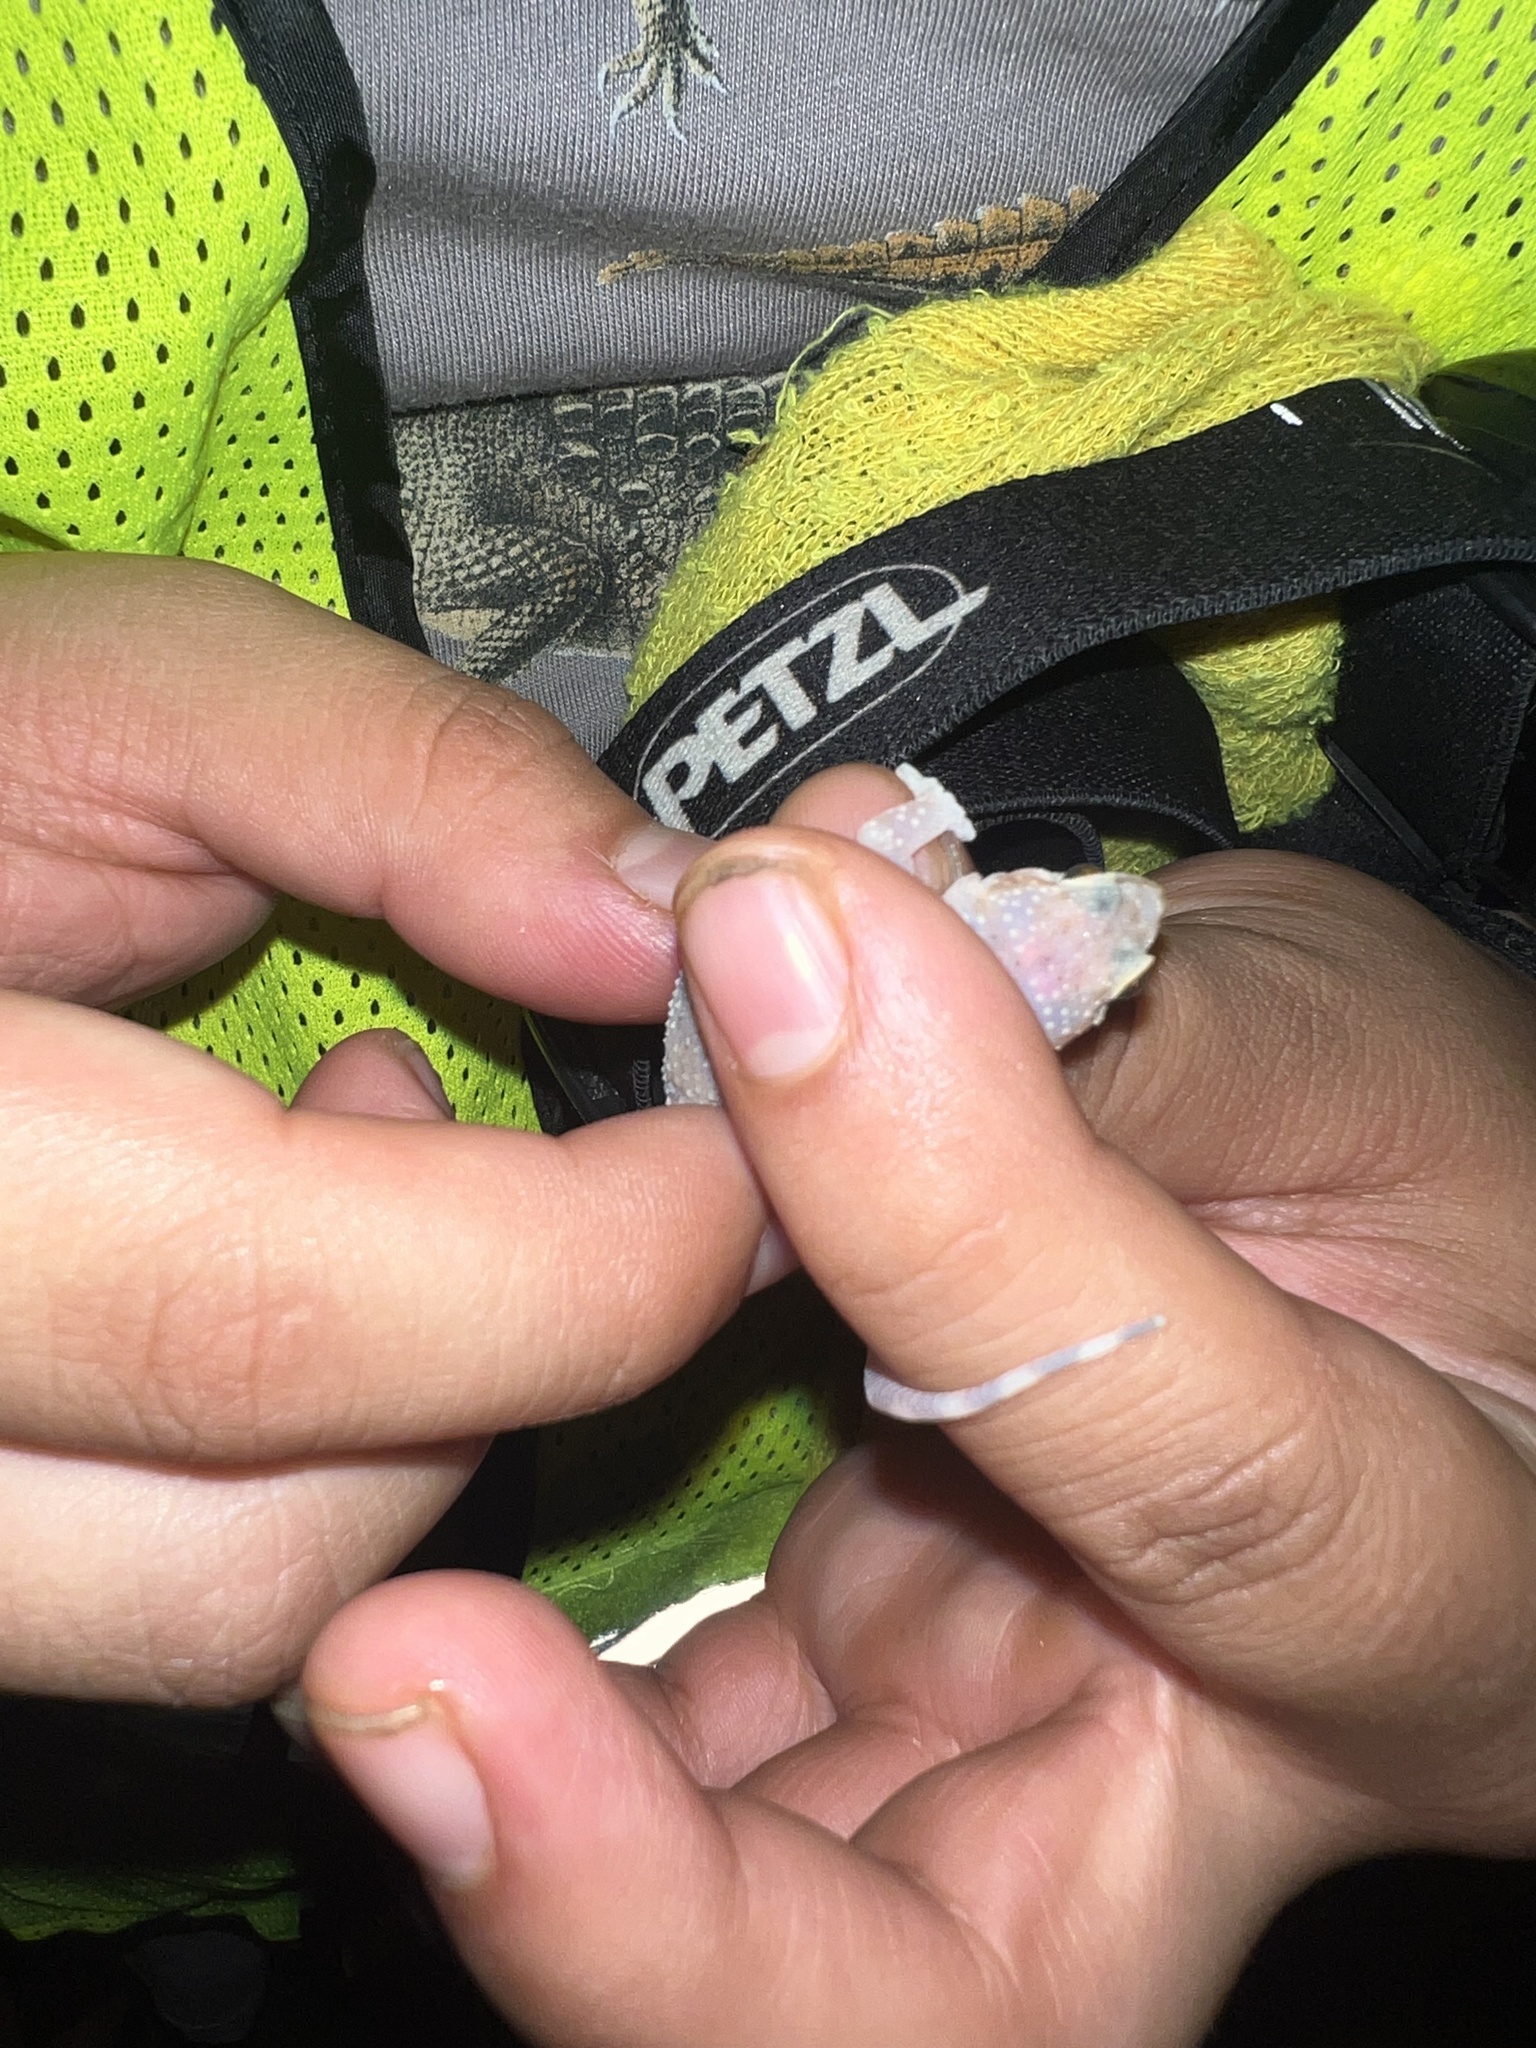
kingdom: Animalia
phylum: Chordata
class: Squamata
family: Gekkonidae
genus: Hemidactylus
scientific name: Hemidactylus turcicus
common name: Turkish gecko
